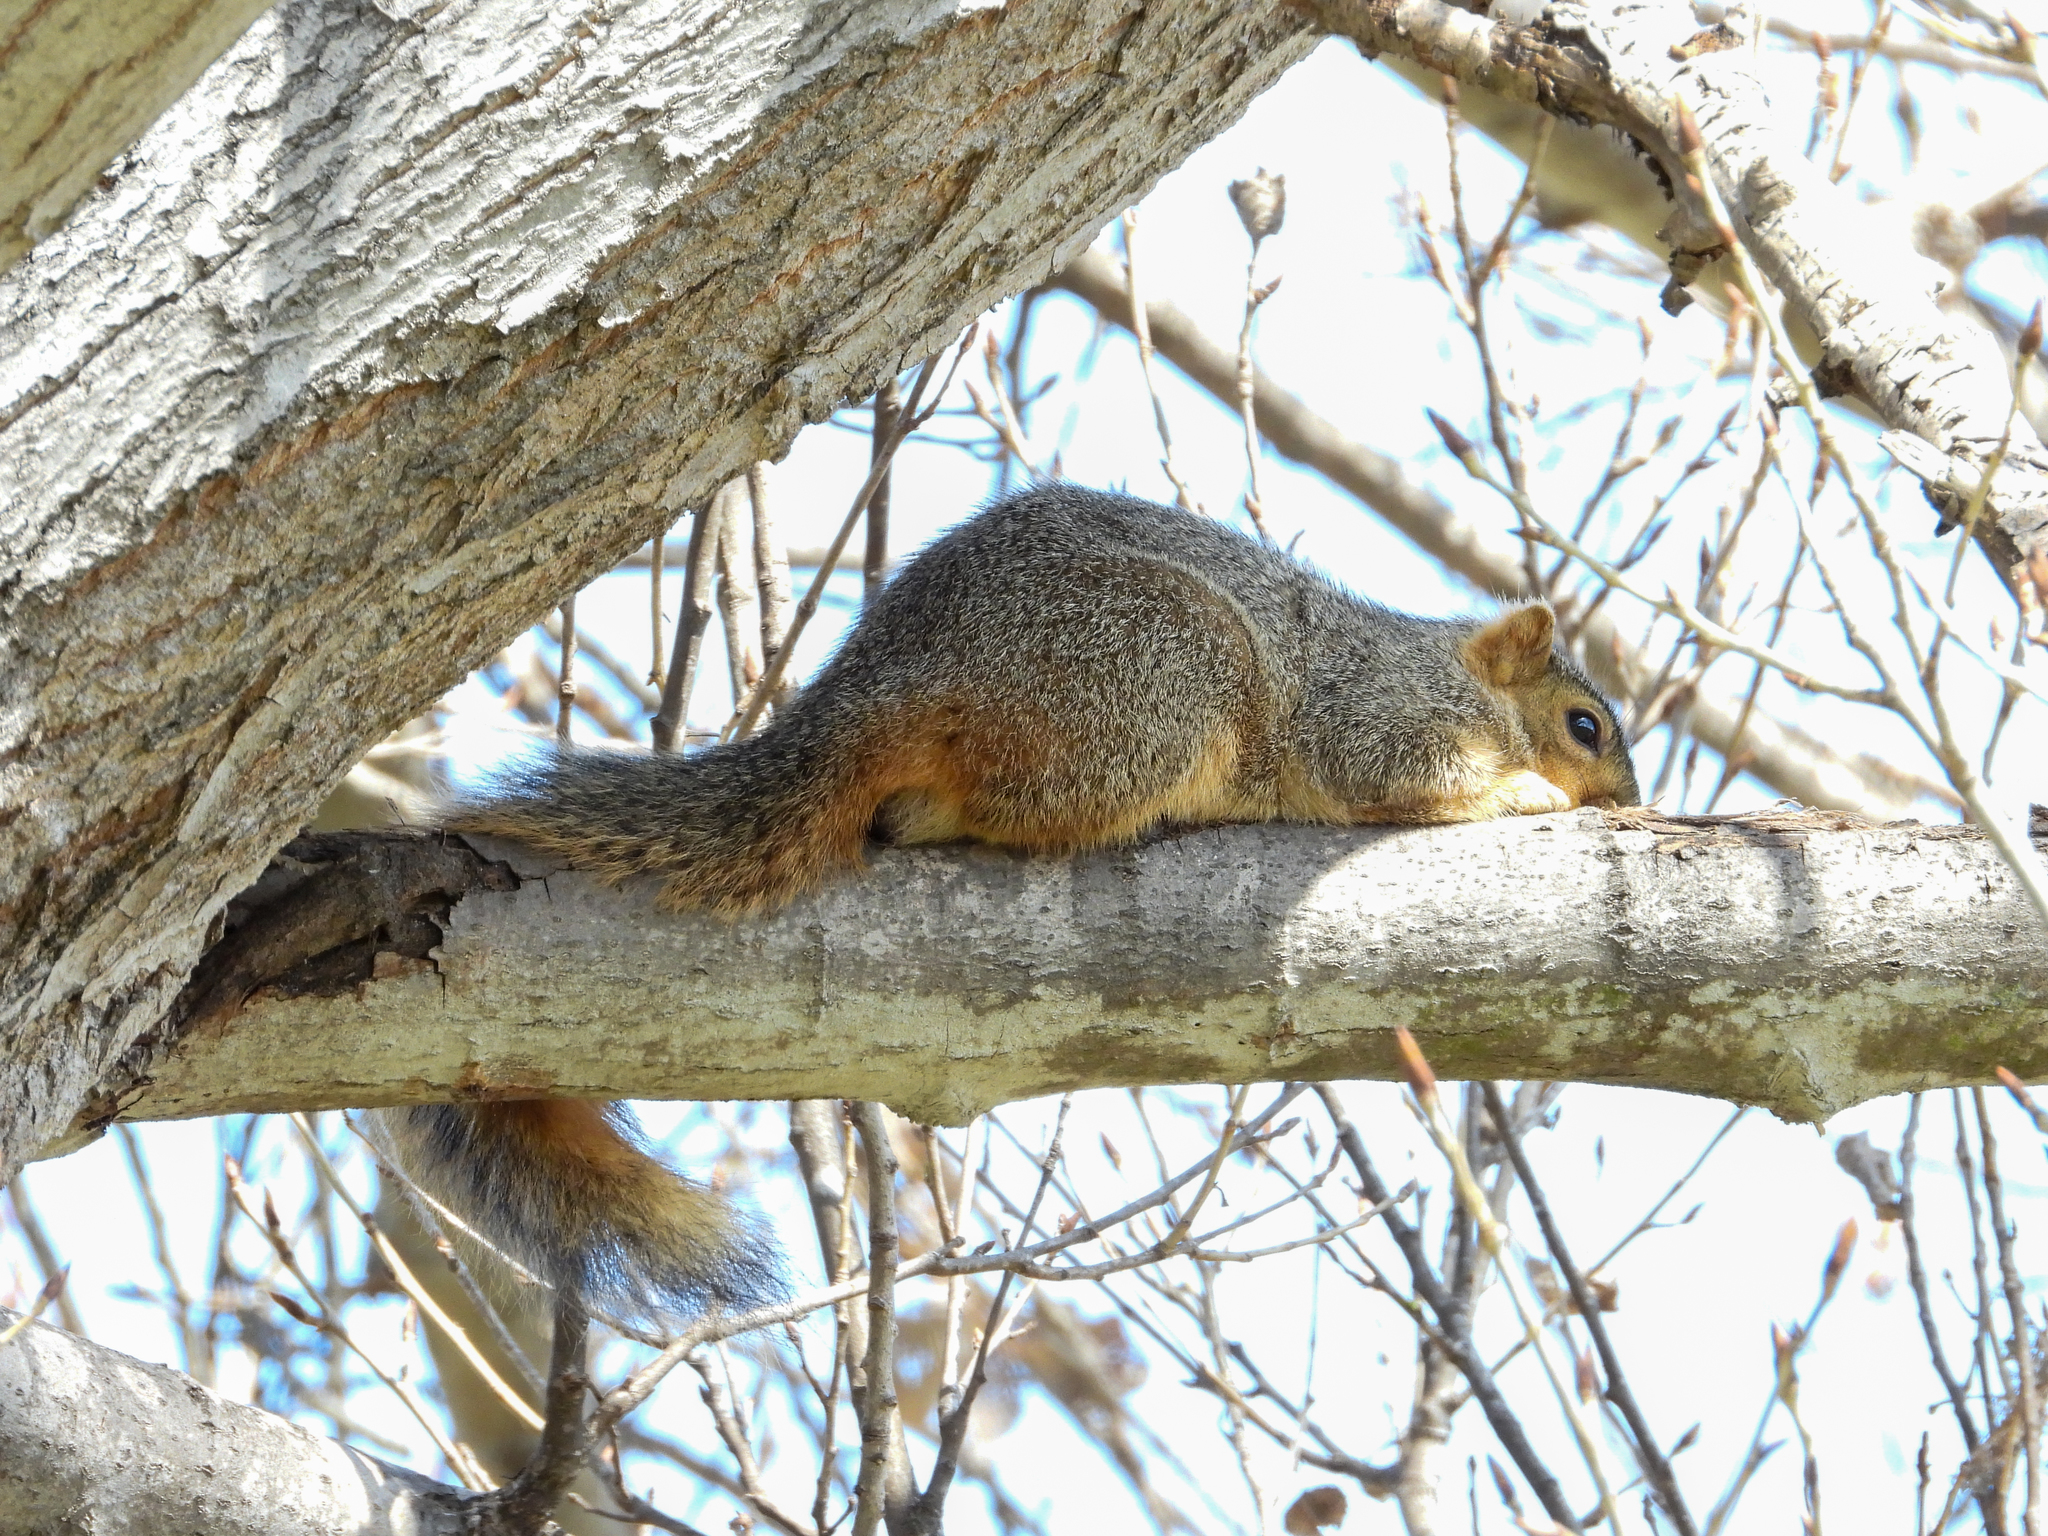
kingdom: Animalia
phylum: Chordata
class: Mammalia
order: Rodentia
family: Sciuridae
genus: Sciurus
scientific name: Sciurus niger
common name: Fox squirrel
